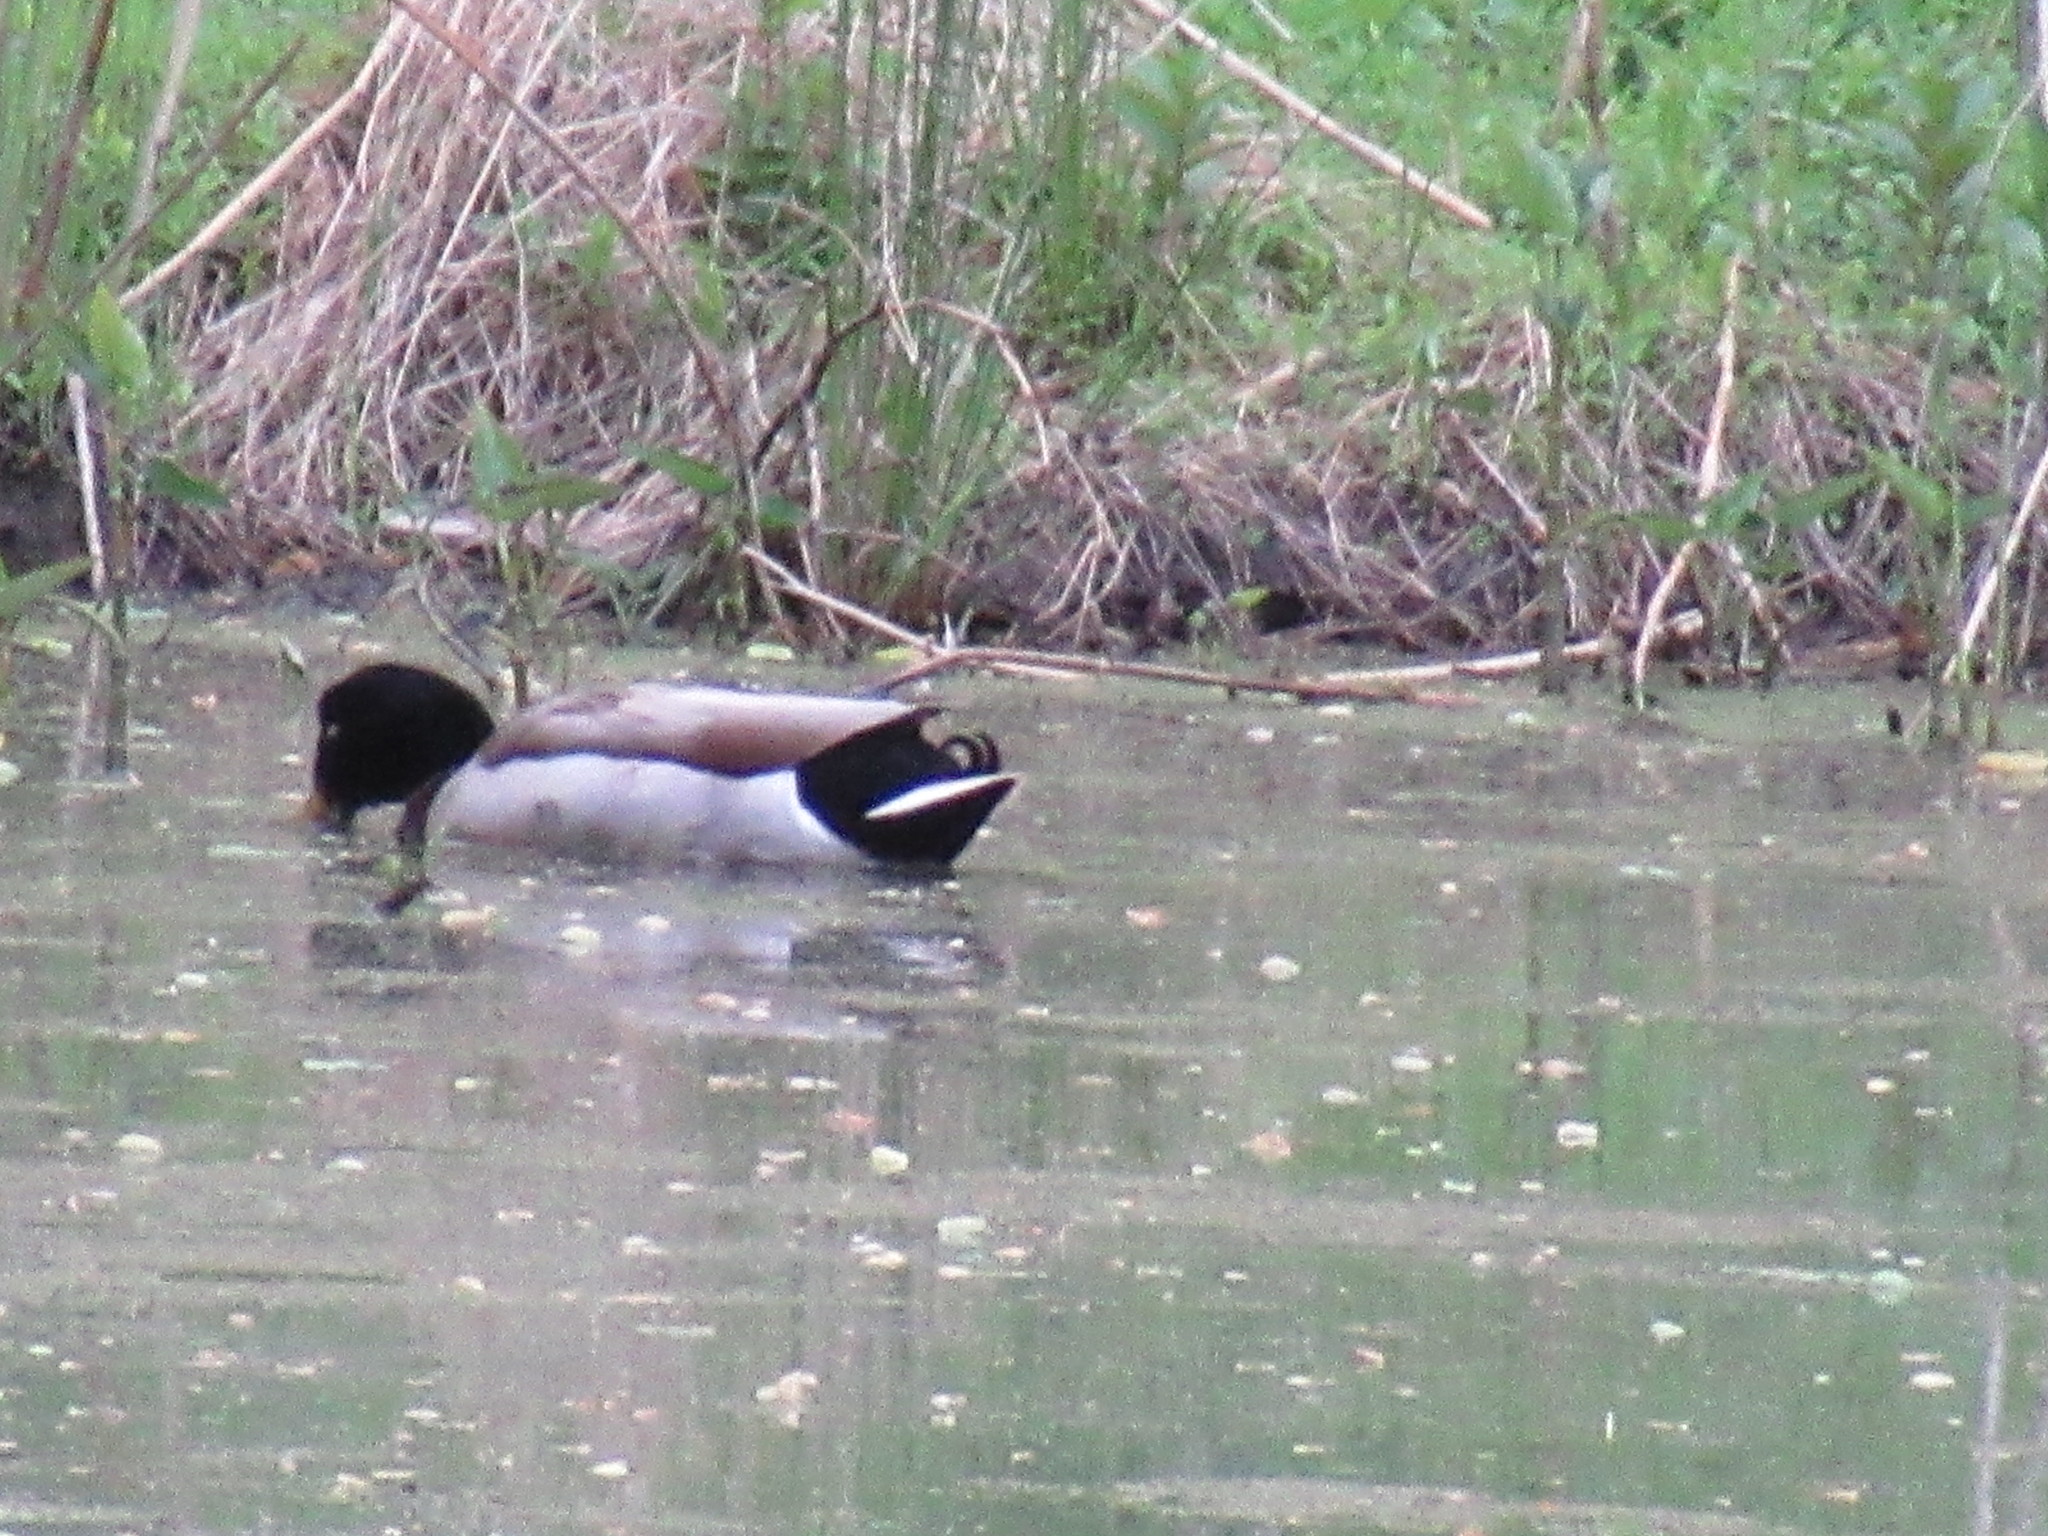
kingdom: Animalia
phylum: Chordata
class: Aves
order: Anseriformes
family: Anatidae
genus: Anas
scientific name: Anas platyrhynchos
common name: Mallard
